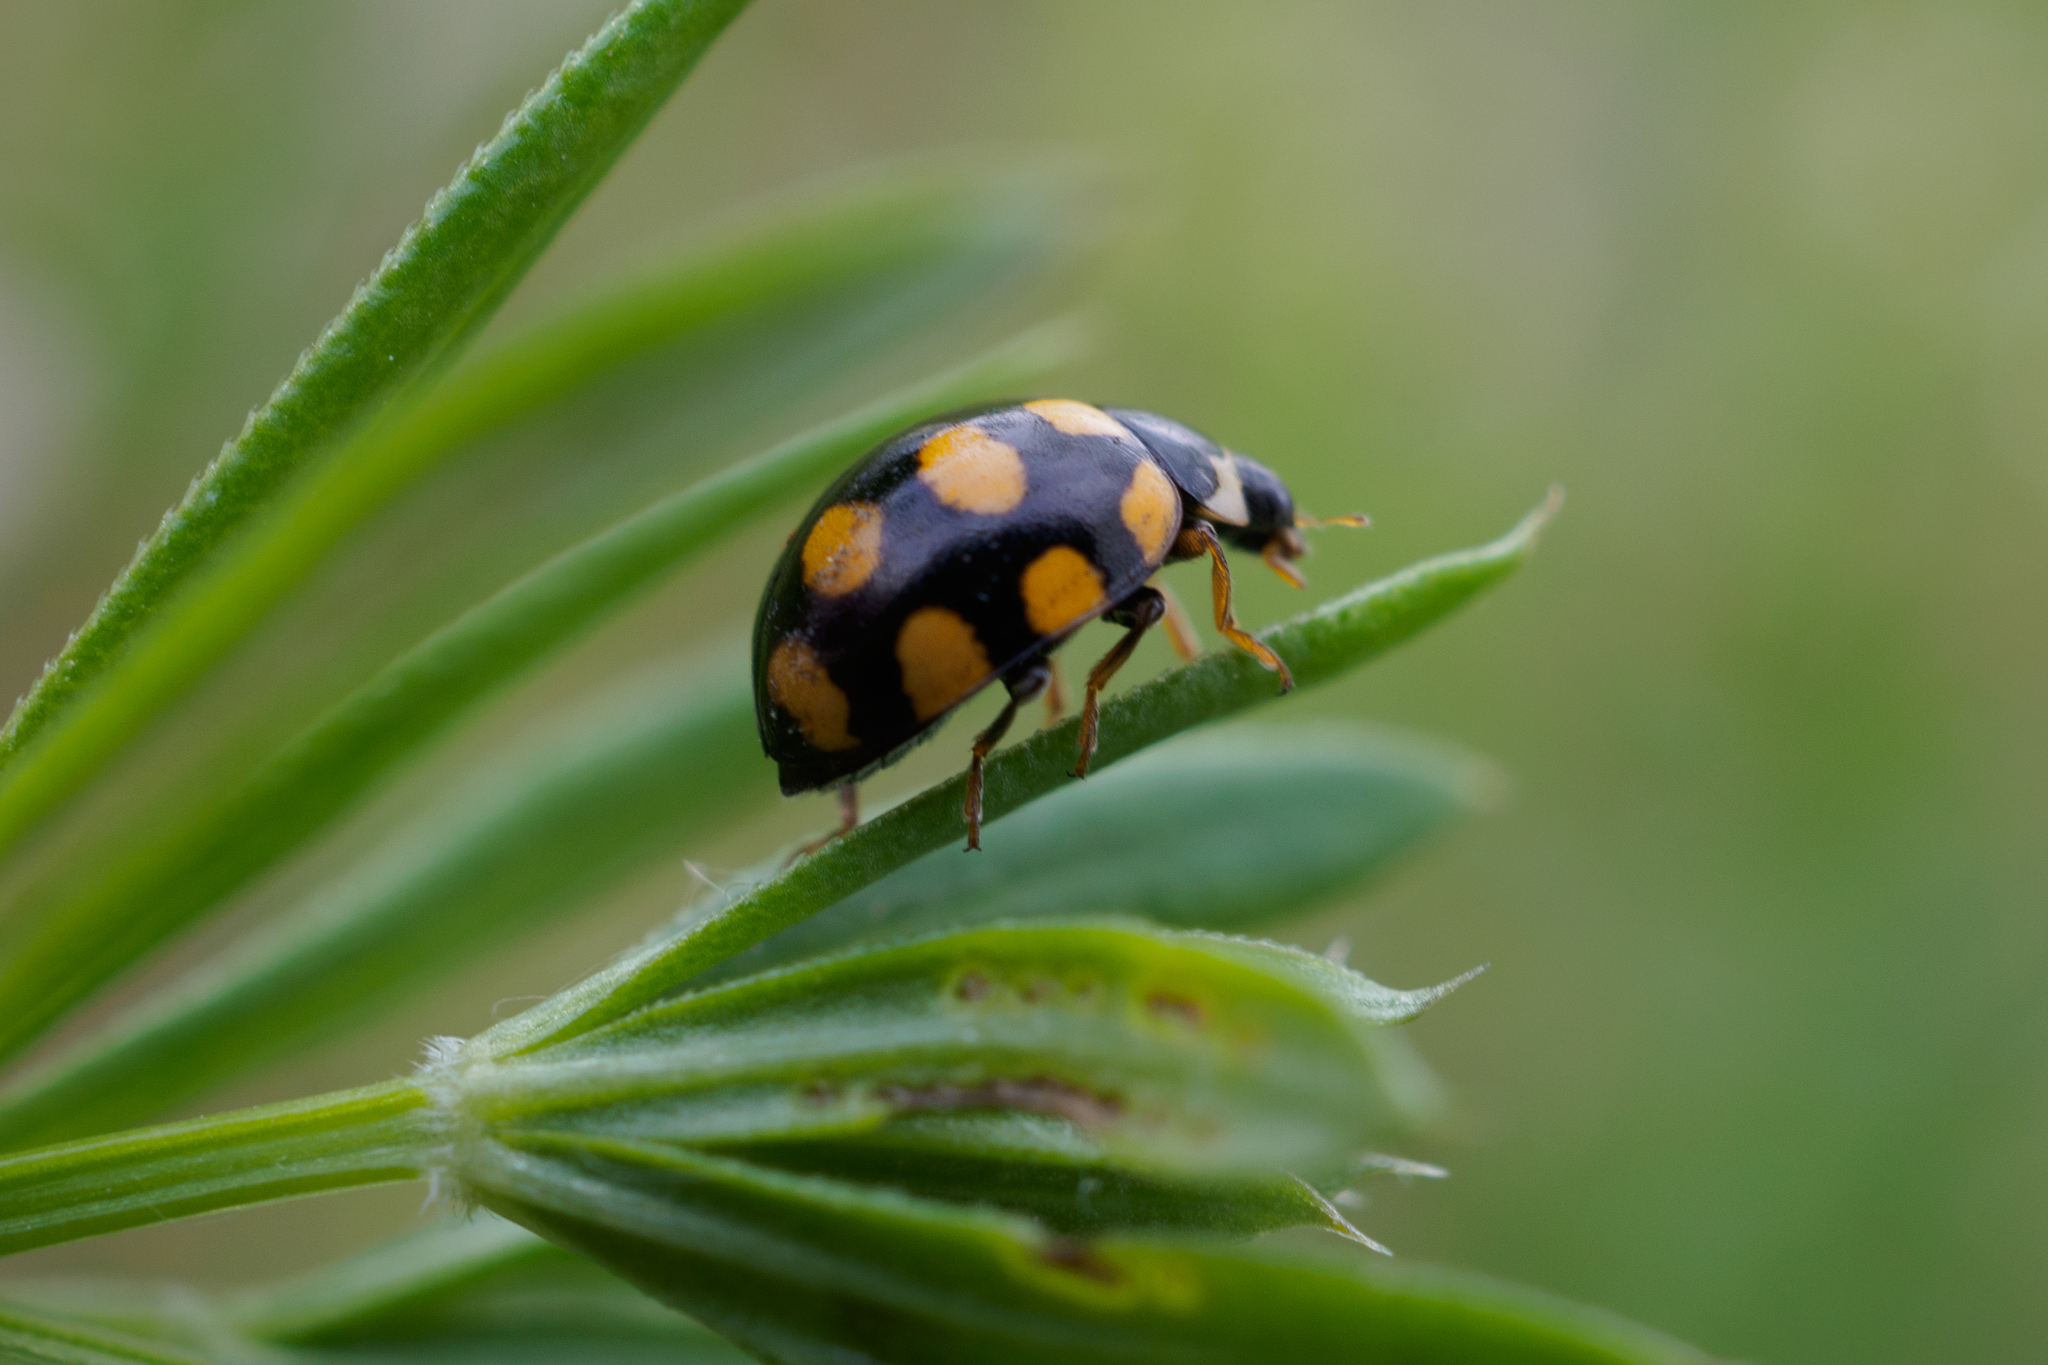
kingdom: Animalia
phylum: Arthropoda
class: Insecta
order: Coleoptera
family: Coccinellidae
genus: Coccinula
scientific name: Coccinula quatuordecimpustulata
